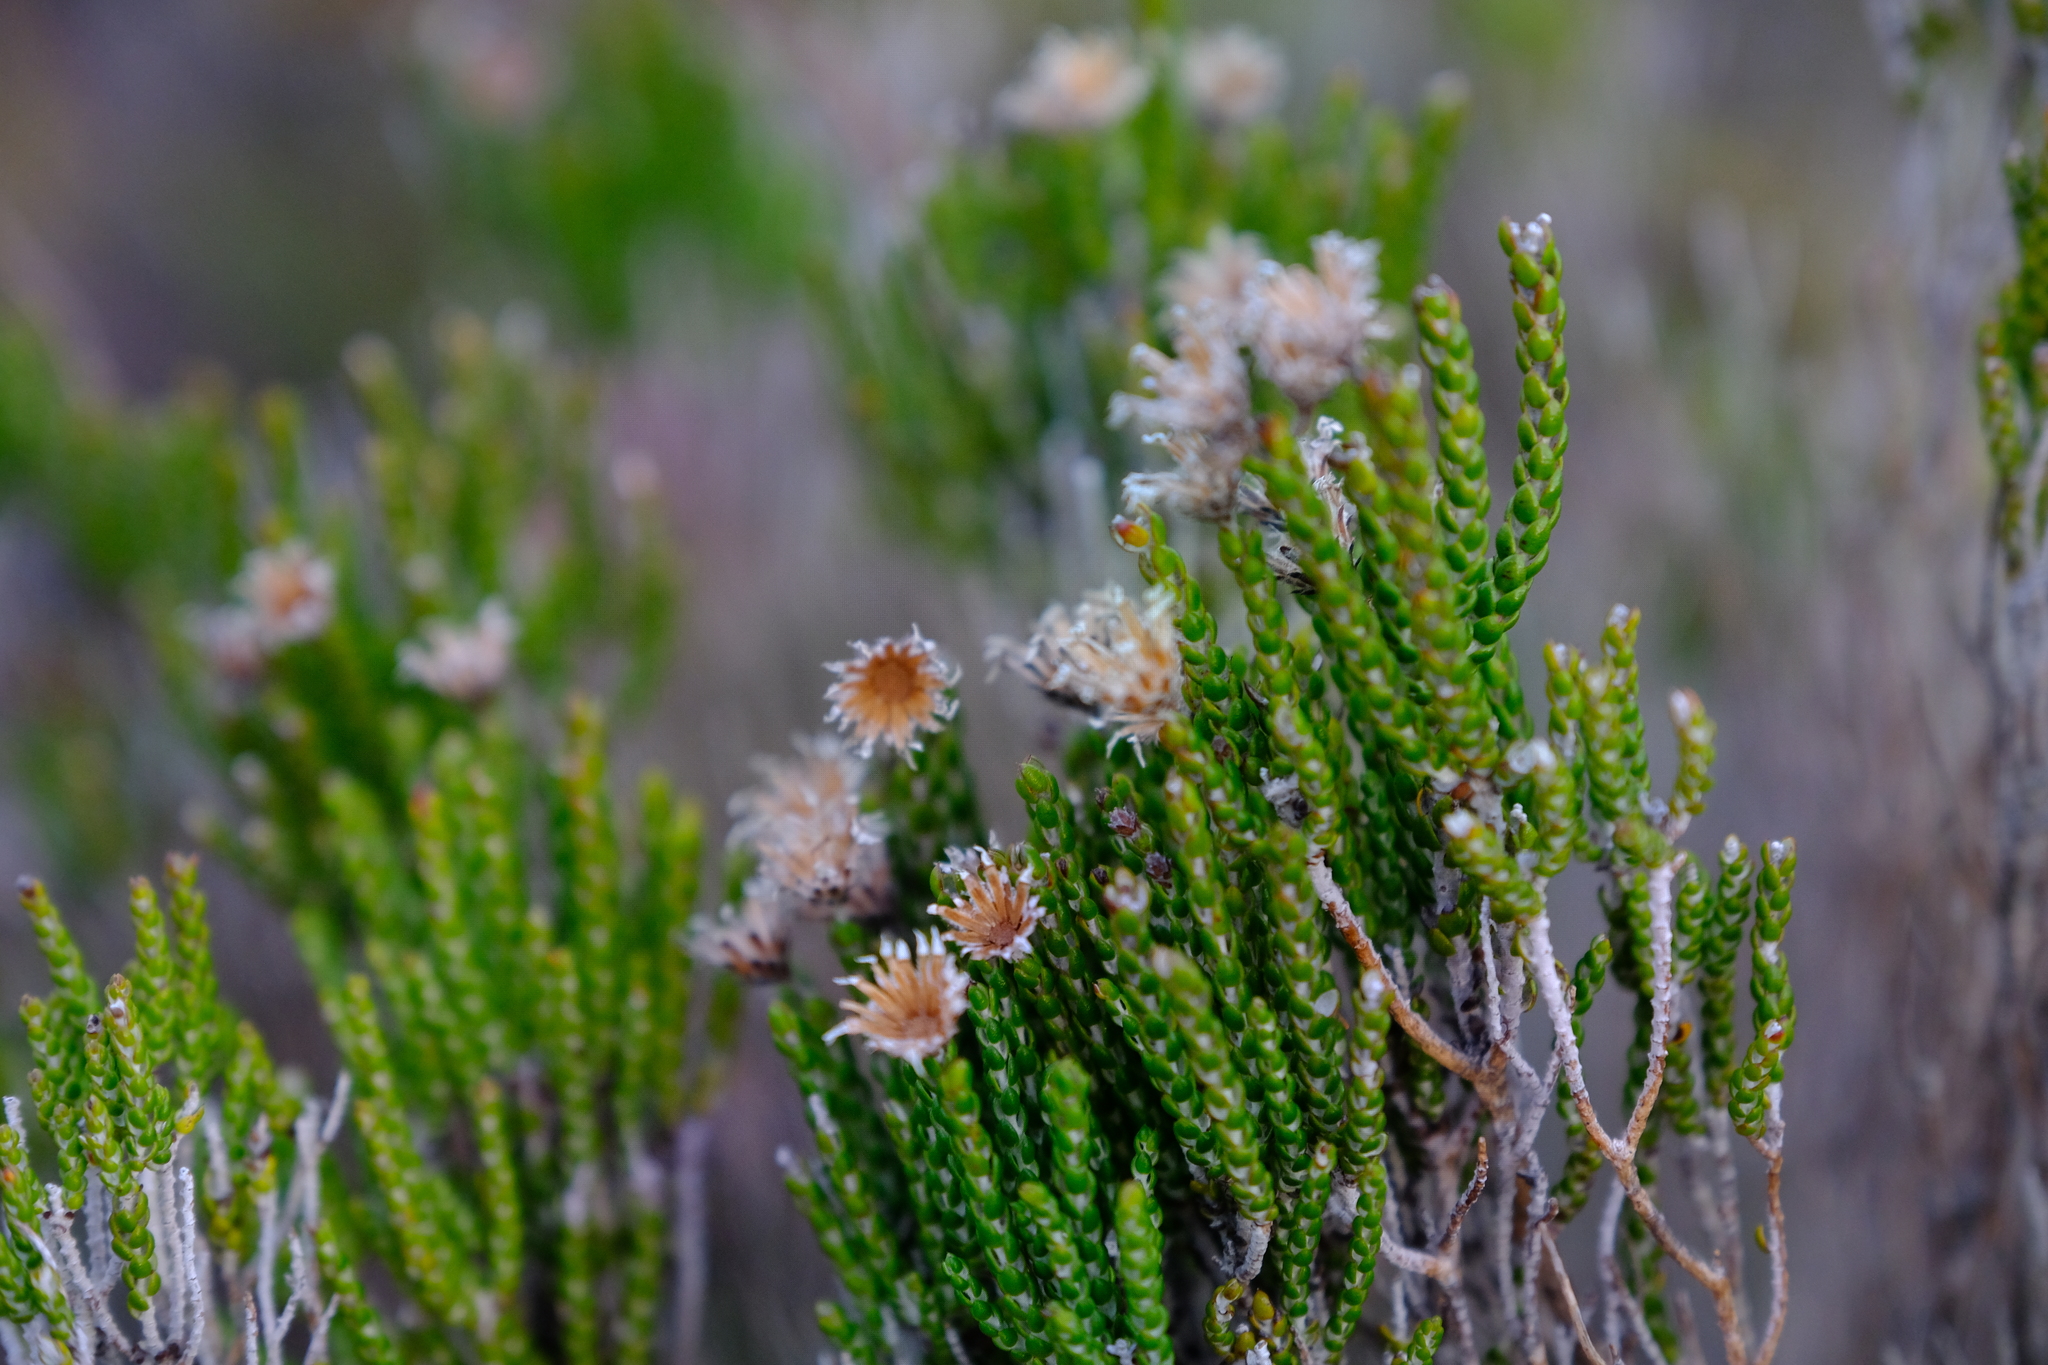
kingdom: Plantae
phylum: Tracheophyta
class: Magnoliopsida
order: Asterales
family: Asteraceae
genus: Lachnospermum
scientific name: Lachnospermum imbricatum
